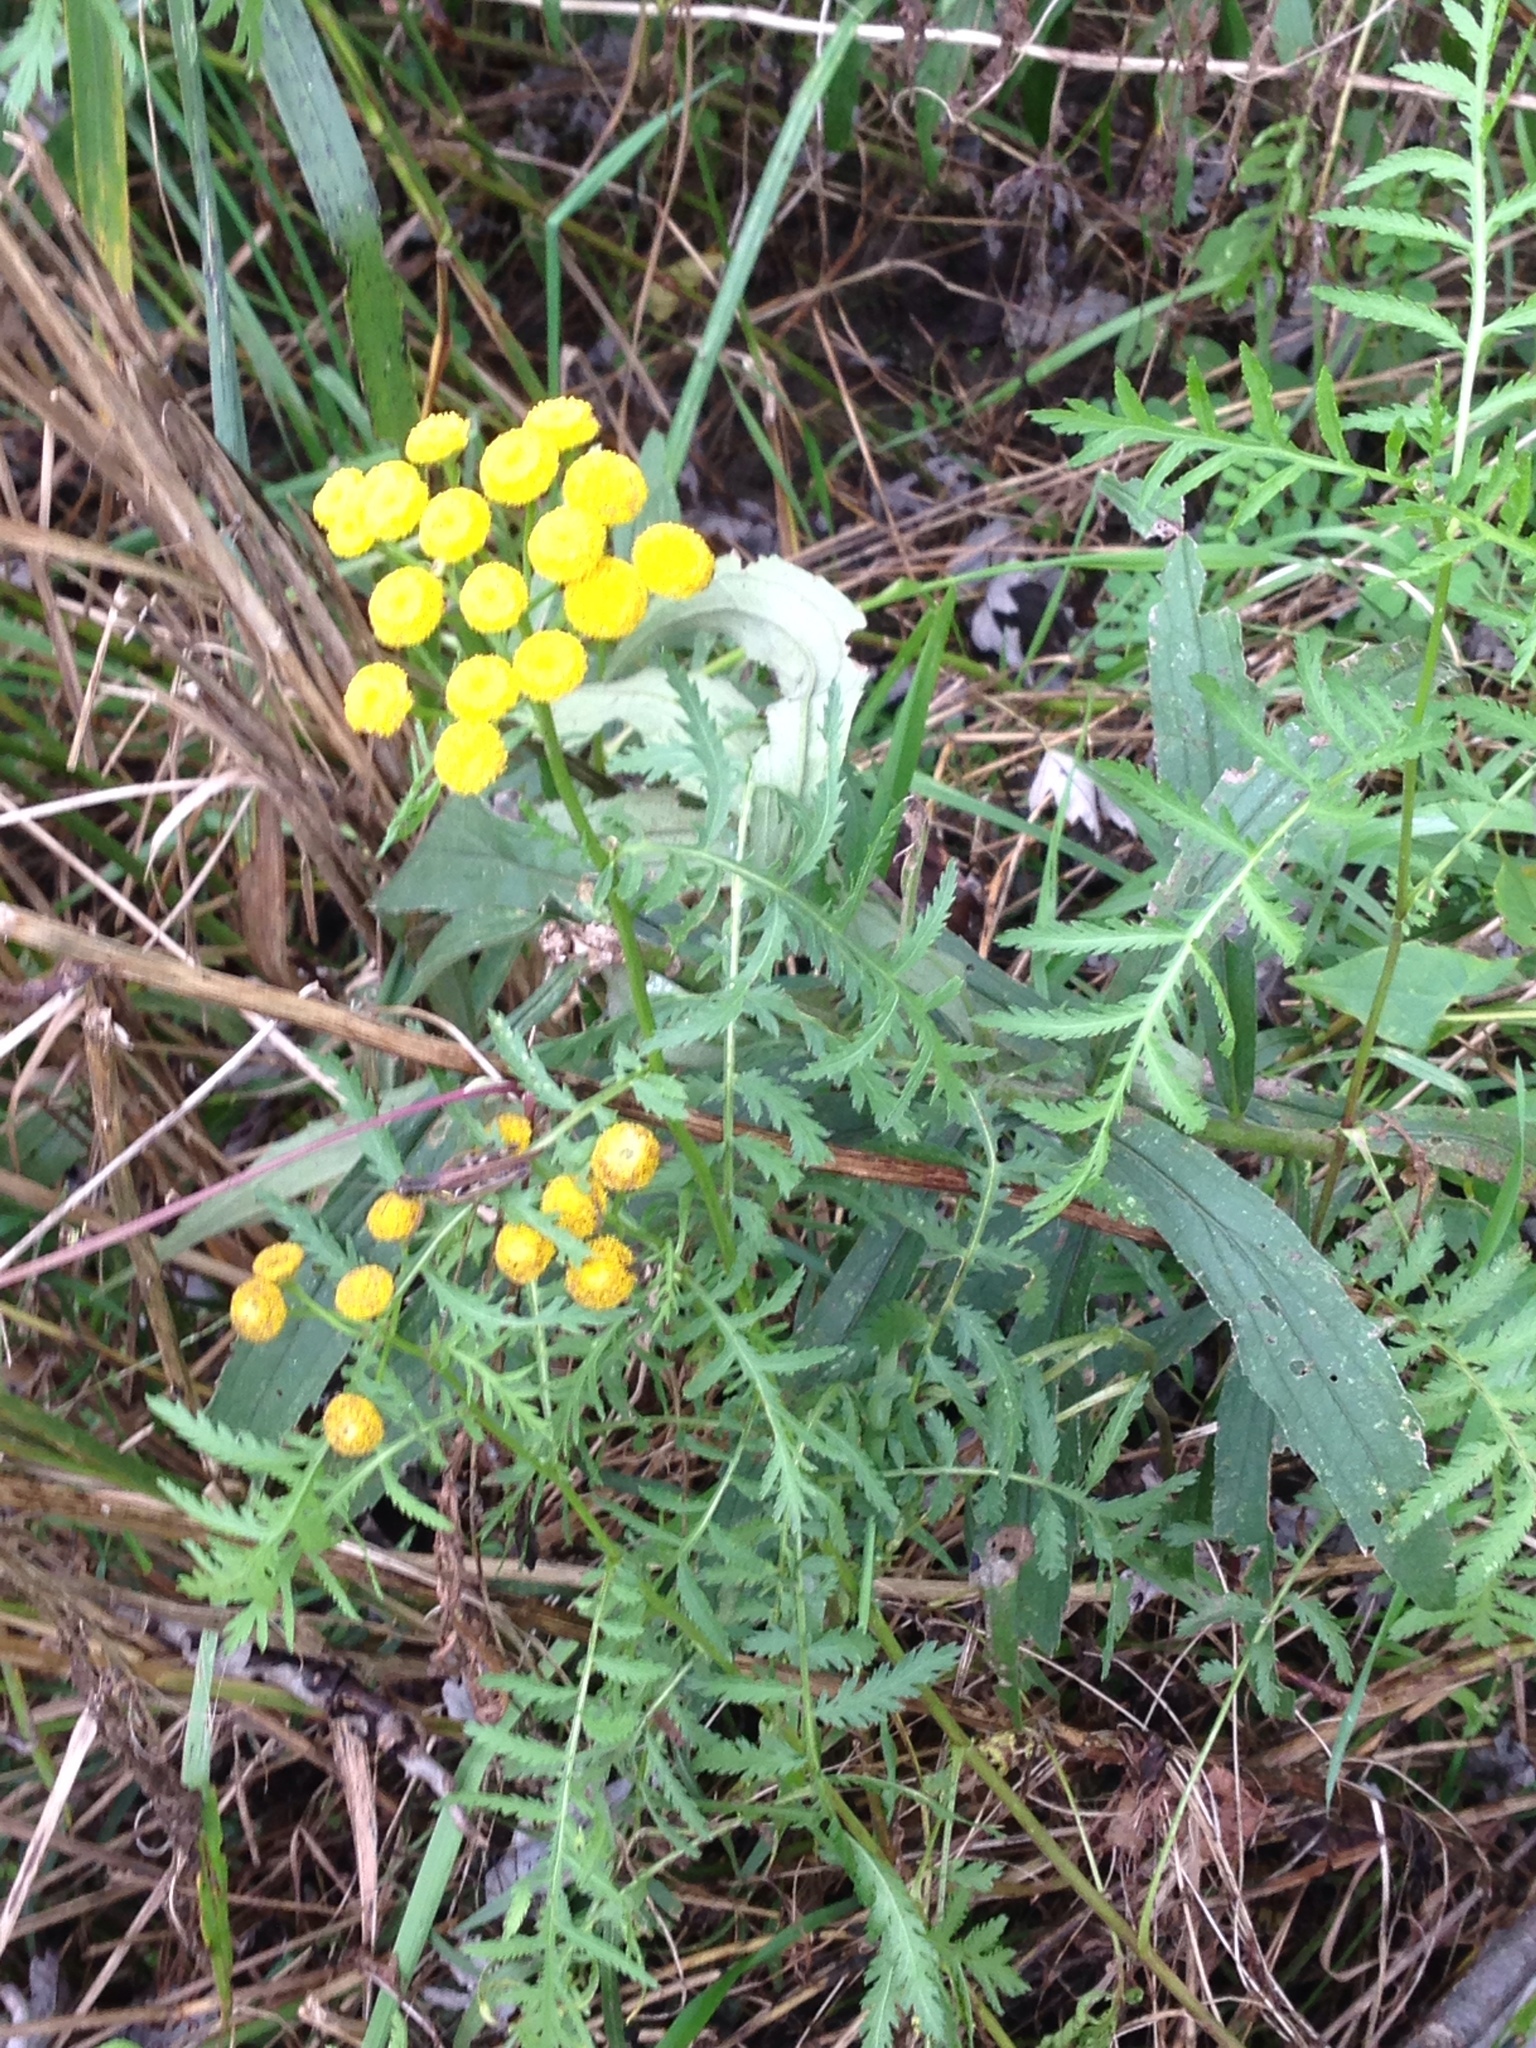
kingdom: Plantae
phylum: Tracheophyta
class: Magnoliopsida
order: Asterales
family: Asteraceae
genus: Tanacetum
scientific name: Tanacetum vulgare
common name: Common tansy
